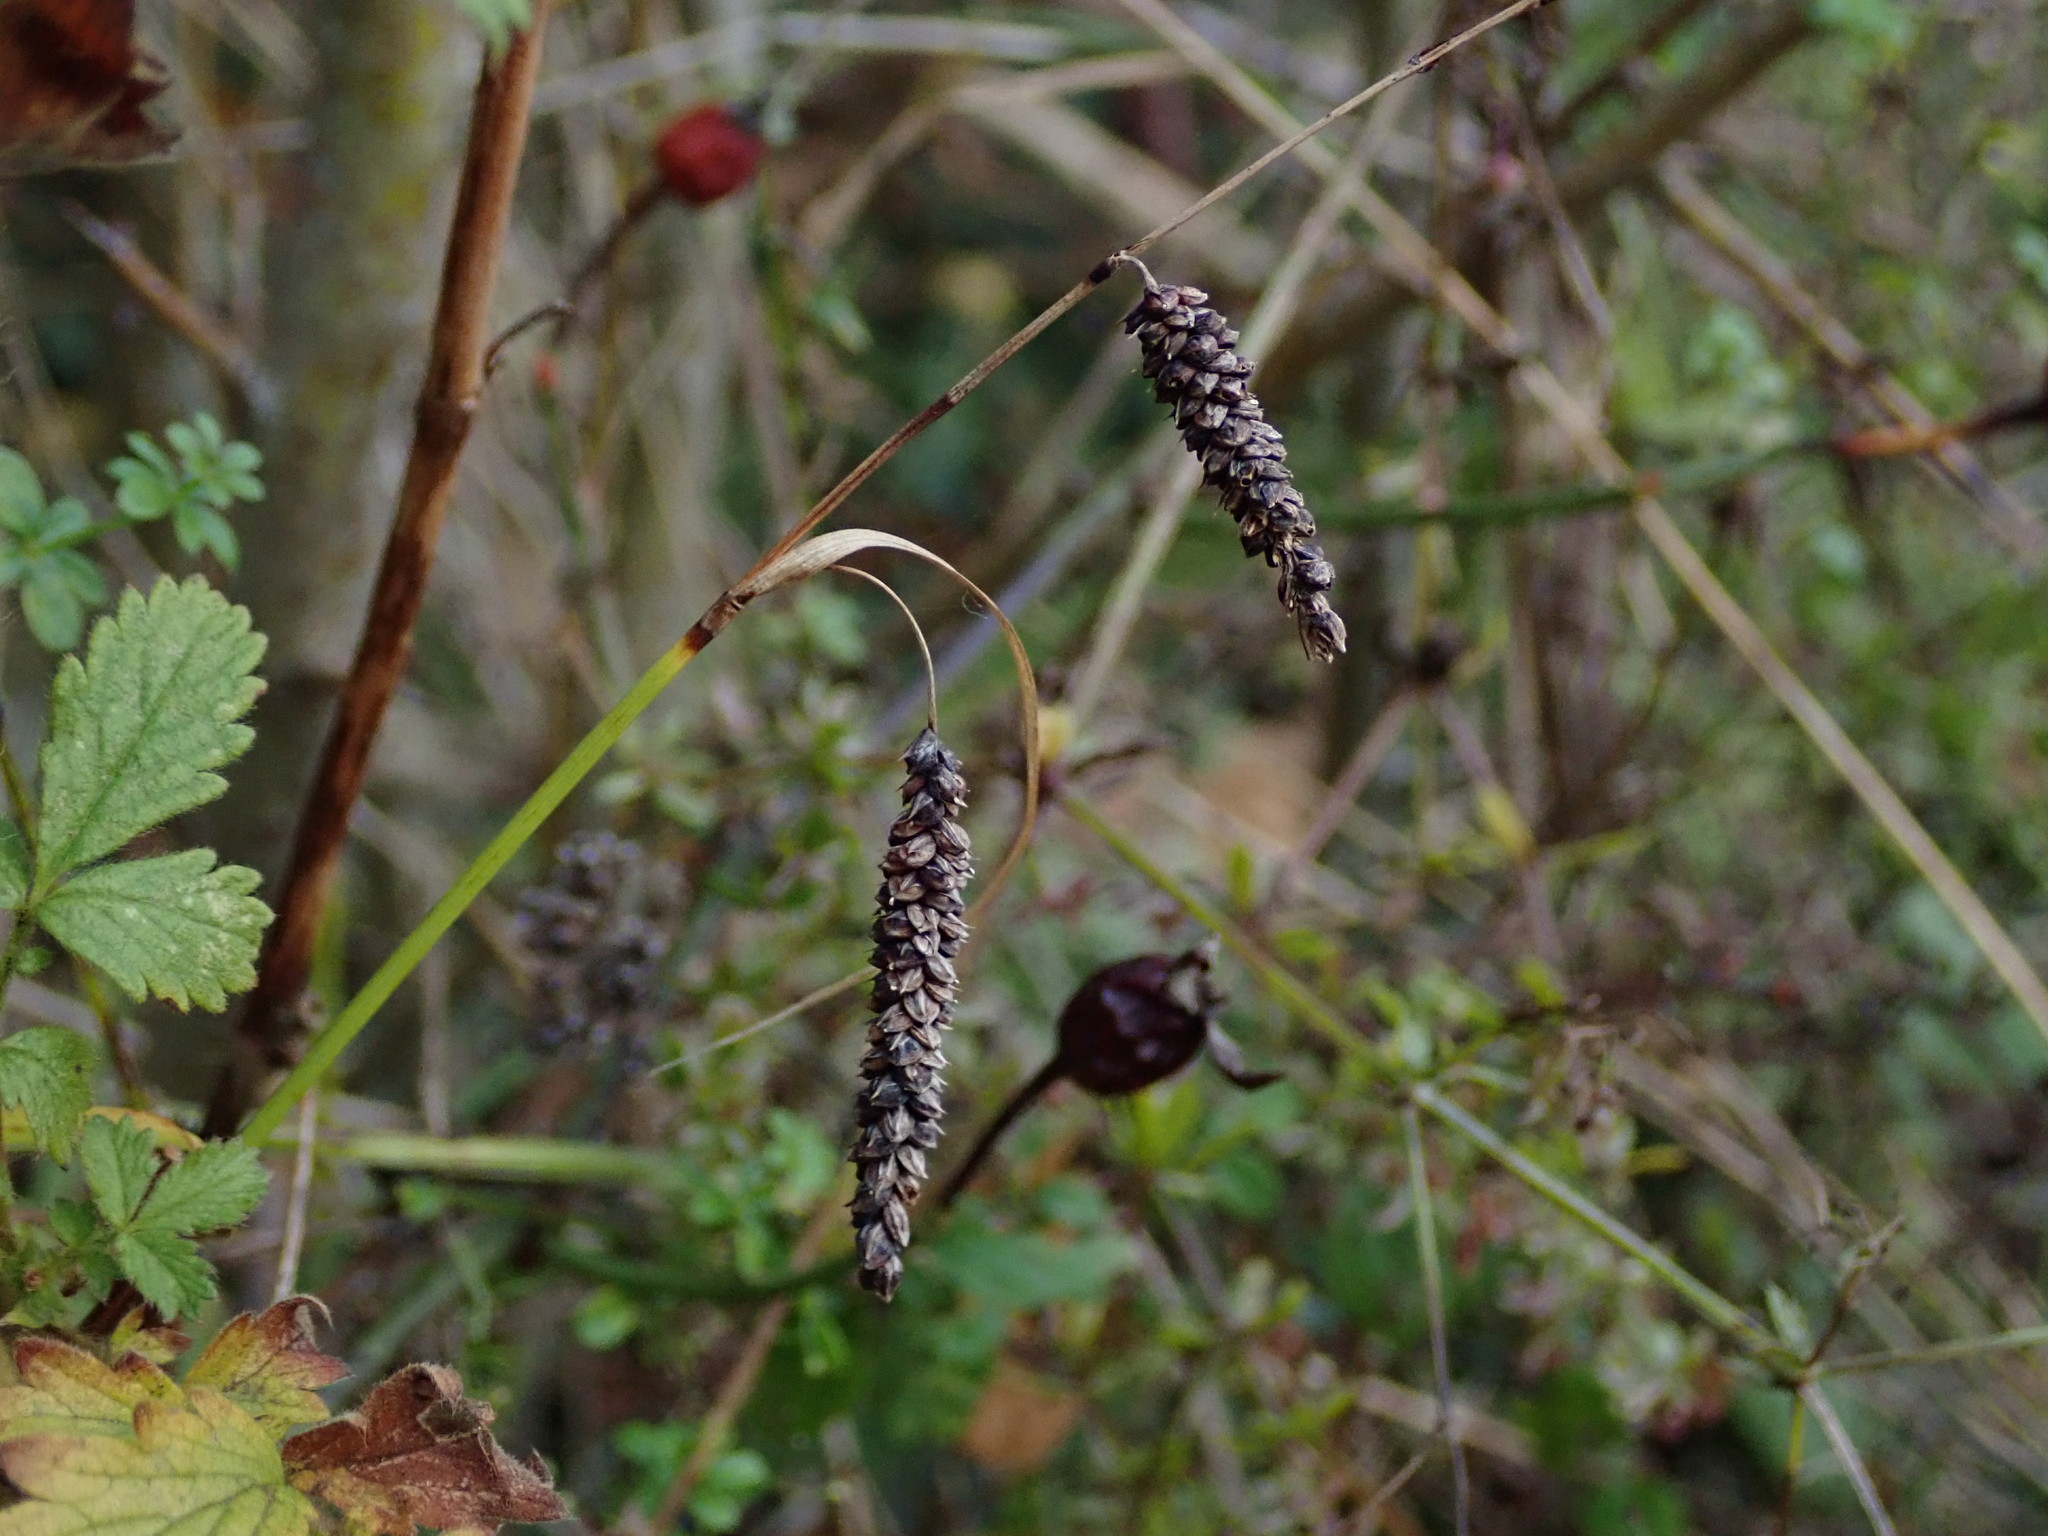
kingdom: Plantae
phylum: Tracheophyta
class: Liliopsida
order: Poales
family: Cyperaceae
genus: Carex
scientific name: Carex flacca
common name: Glaucous sedge
